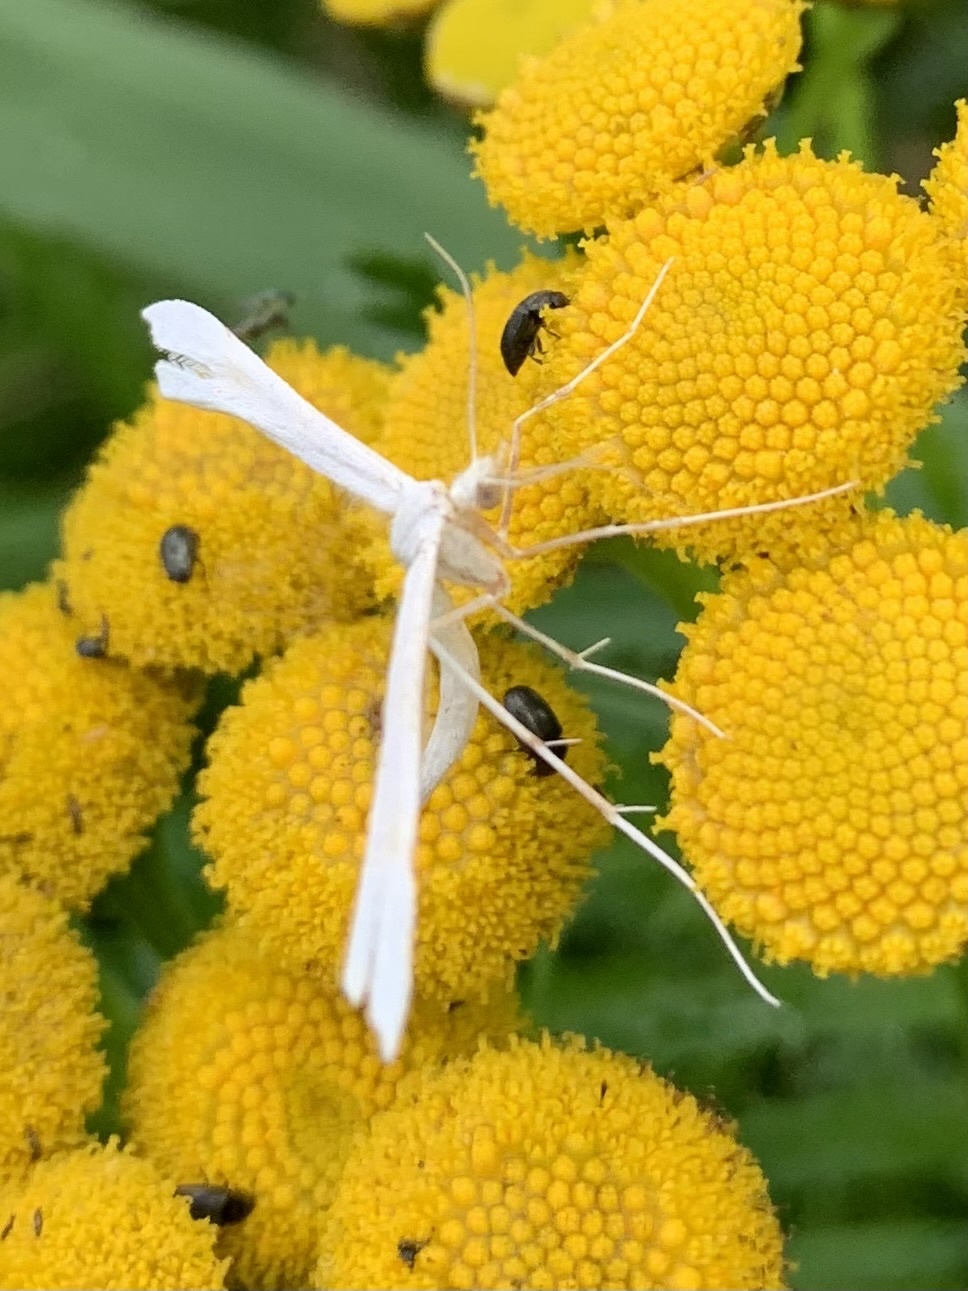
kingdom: Animalia
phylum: Arthropoda
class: Insecta
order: Lepidoptera
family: Pterophoridae
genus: Pterophorus
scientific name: Pterophorus pentadactyla
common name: White plume moth
